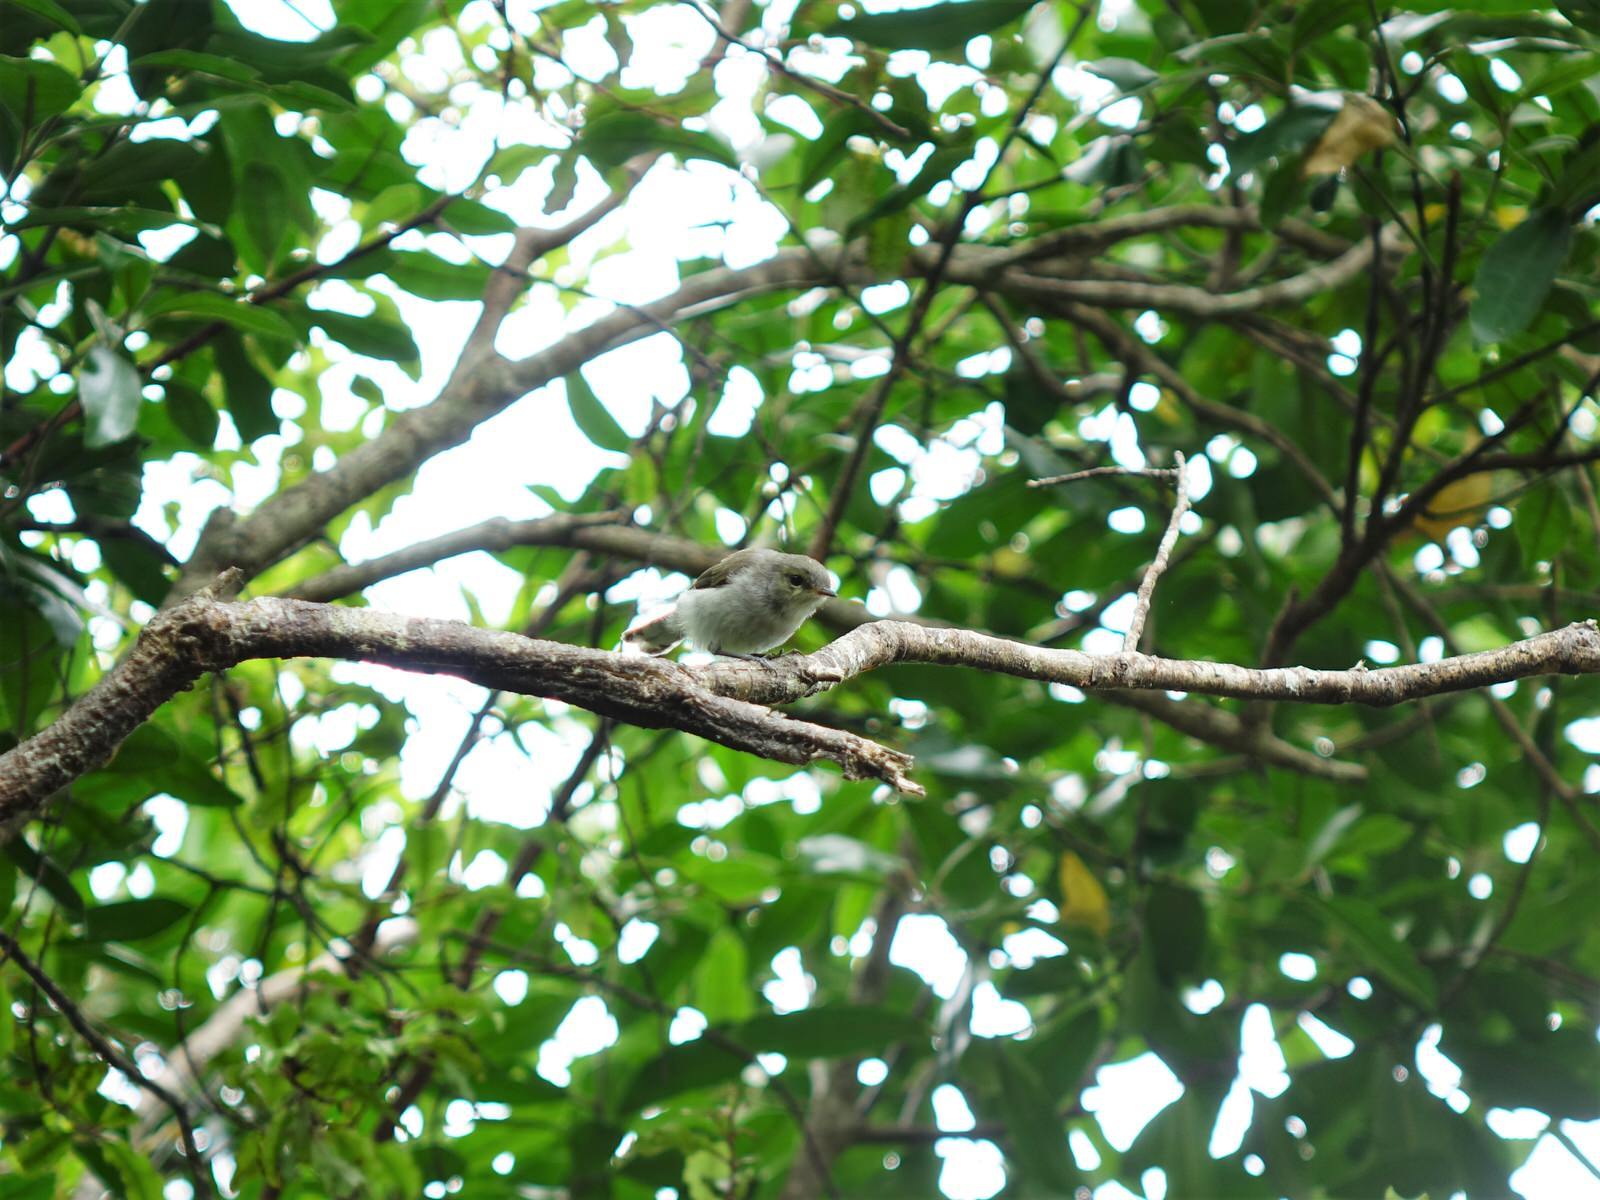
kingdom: Animalia
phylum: Chordata
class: Aves
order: Passeriformes
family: Acanthizidae
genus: Gerygone
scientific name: Gerygone igata
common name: Grey gerygone
